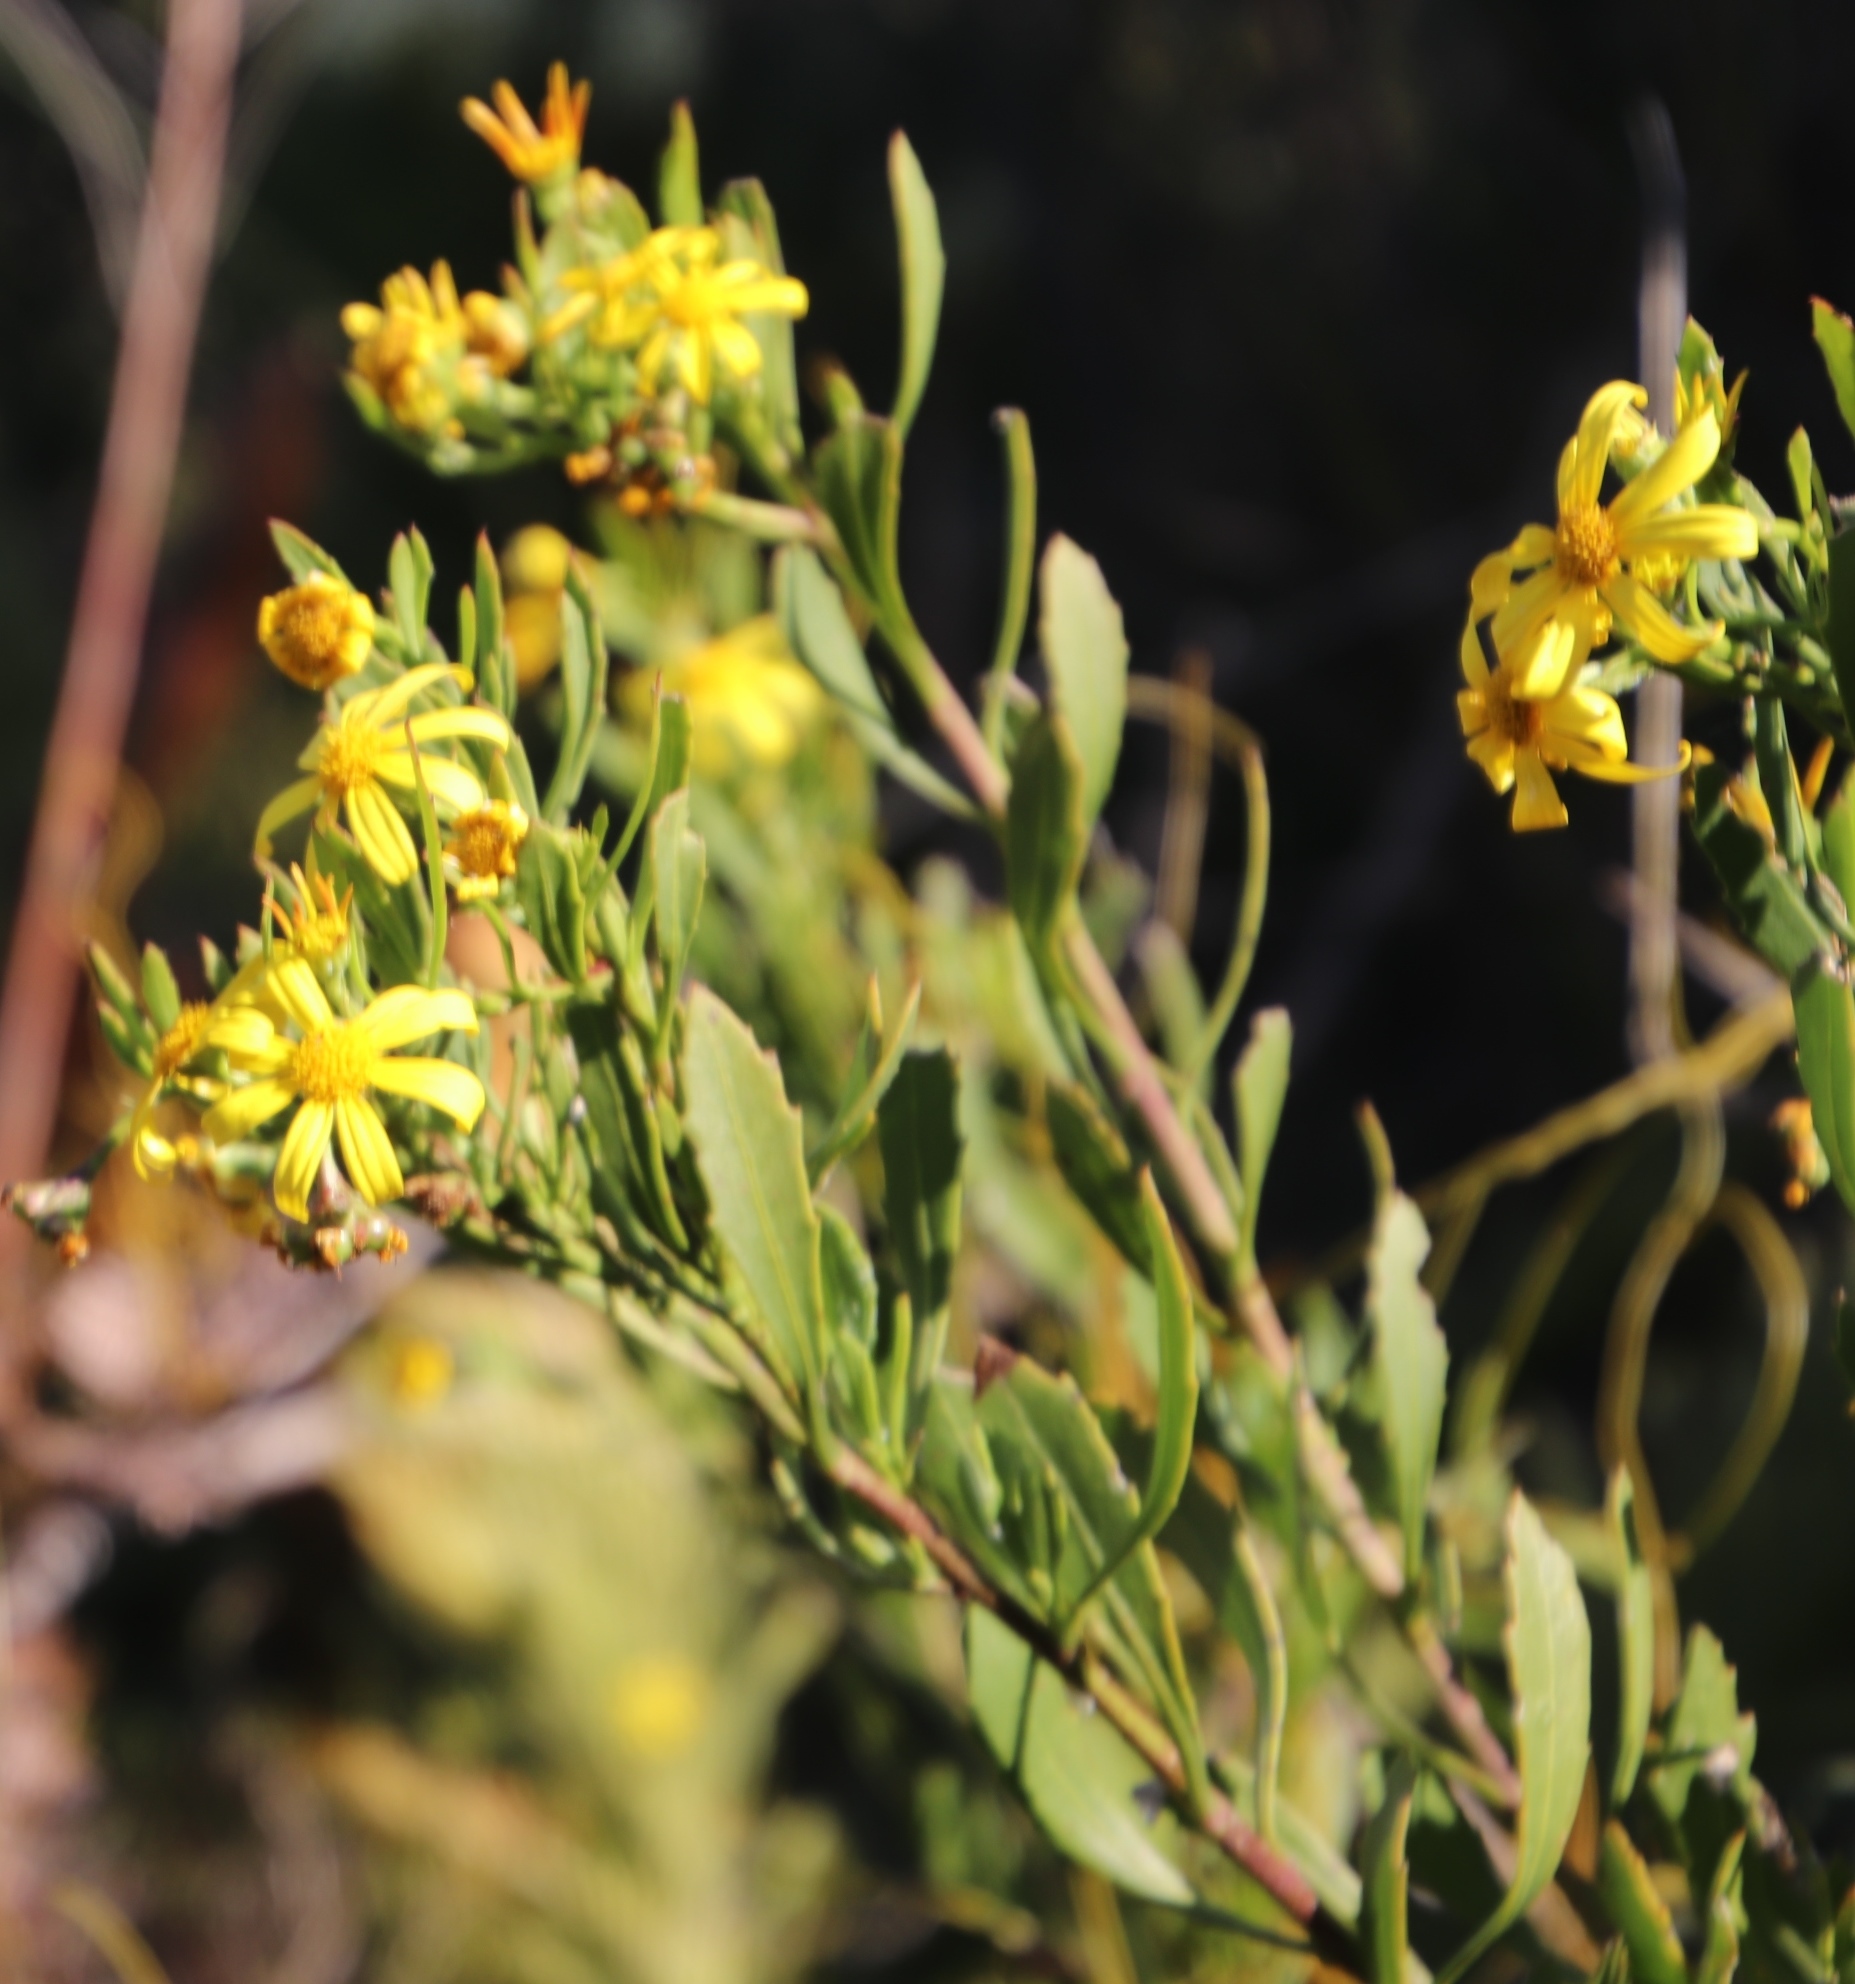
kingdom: Plantae
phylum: Tracheophyta
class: Magnoliopsida
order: Asterales
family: Asteraceae
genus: Osteospermum
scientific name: Osteospermum moniliferum
